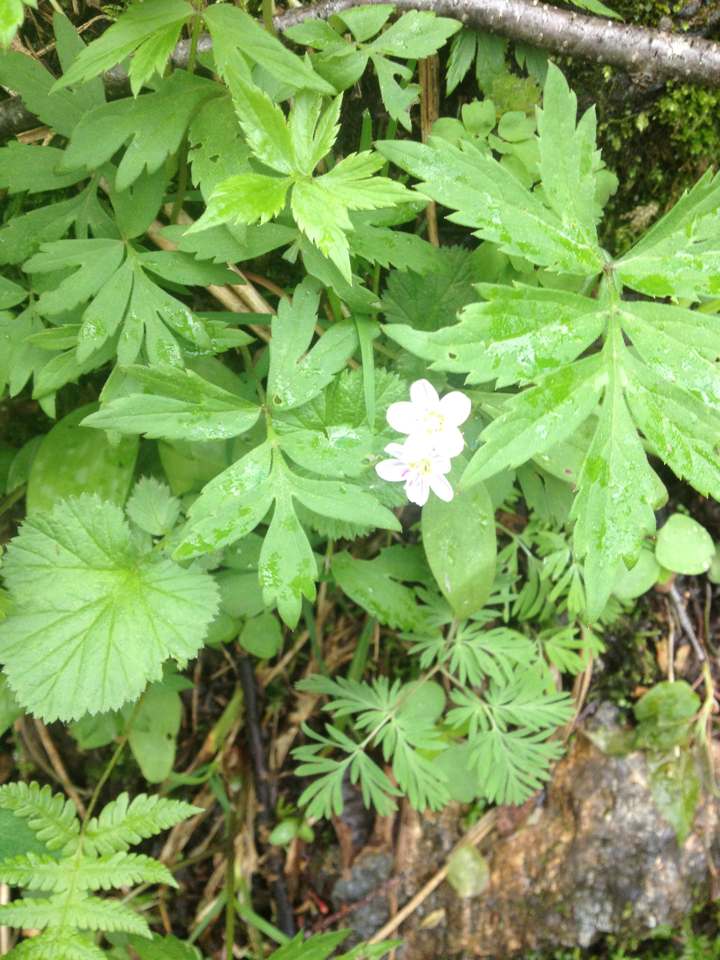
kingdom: Plantae
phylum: Tracheophyta
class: Magnoliopsida
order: Caryophyllales
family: Montiaceae
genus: Claytonia
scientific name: Claytonia caroliniana
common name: Carolina spring beauty
